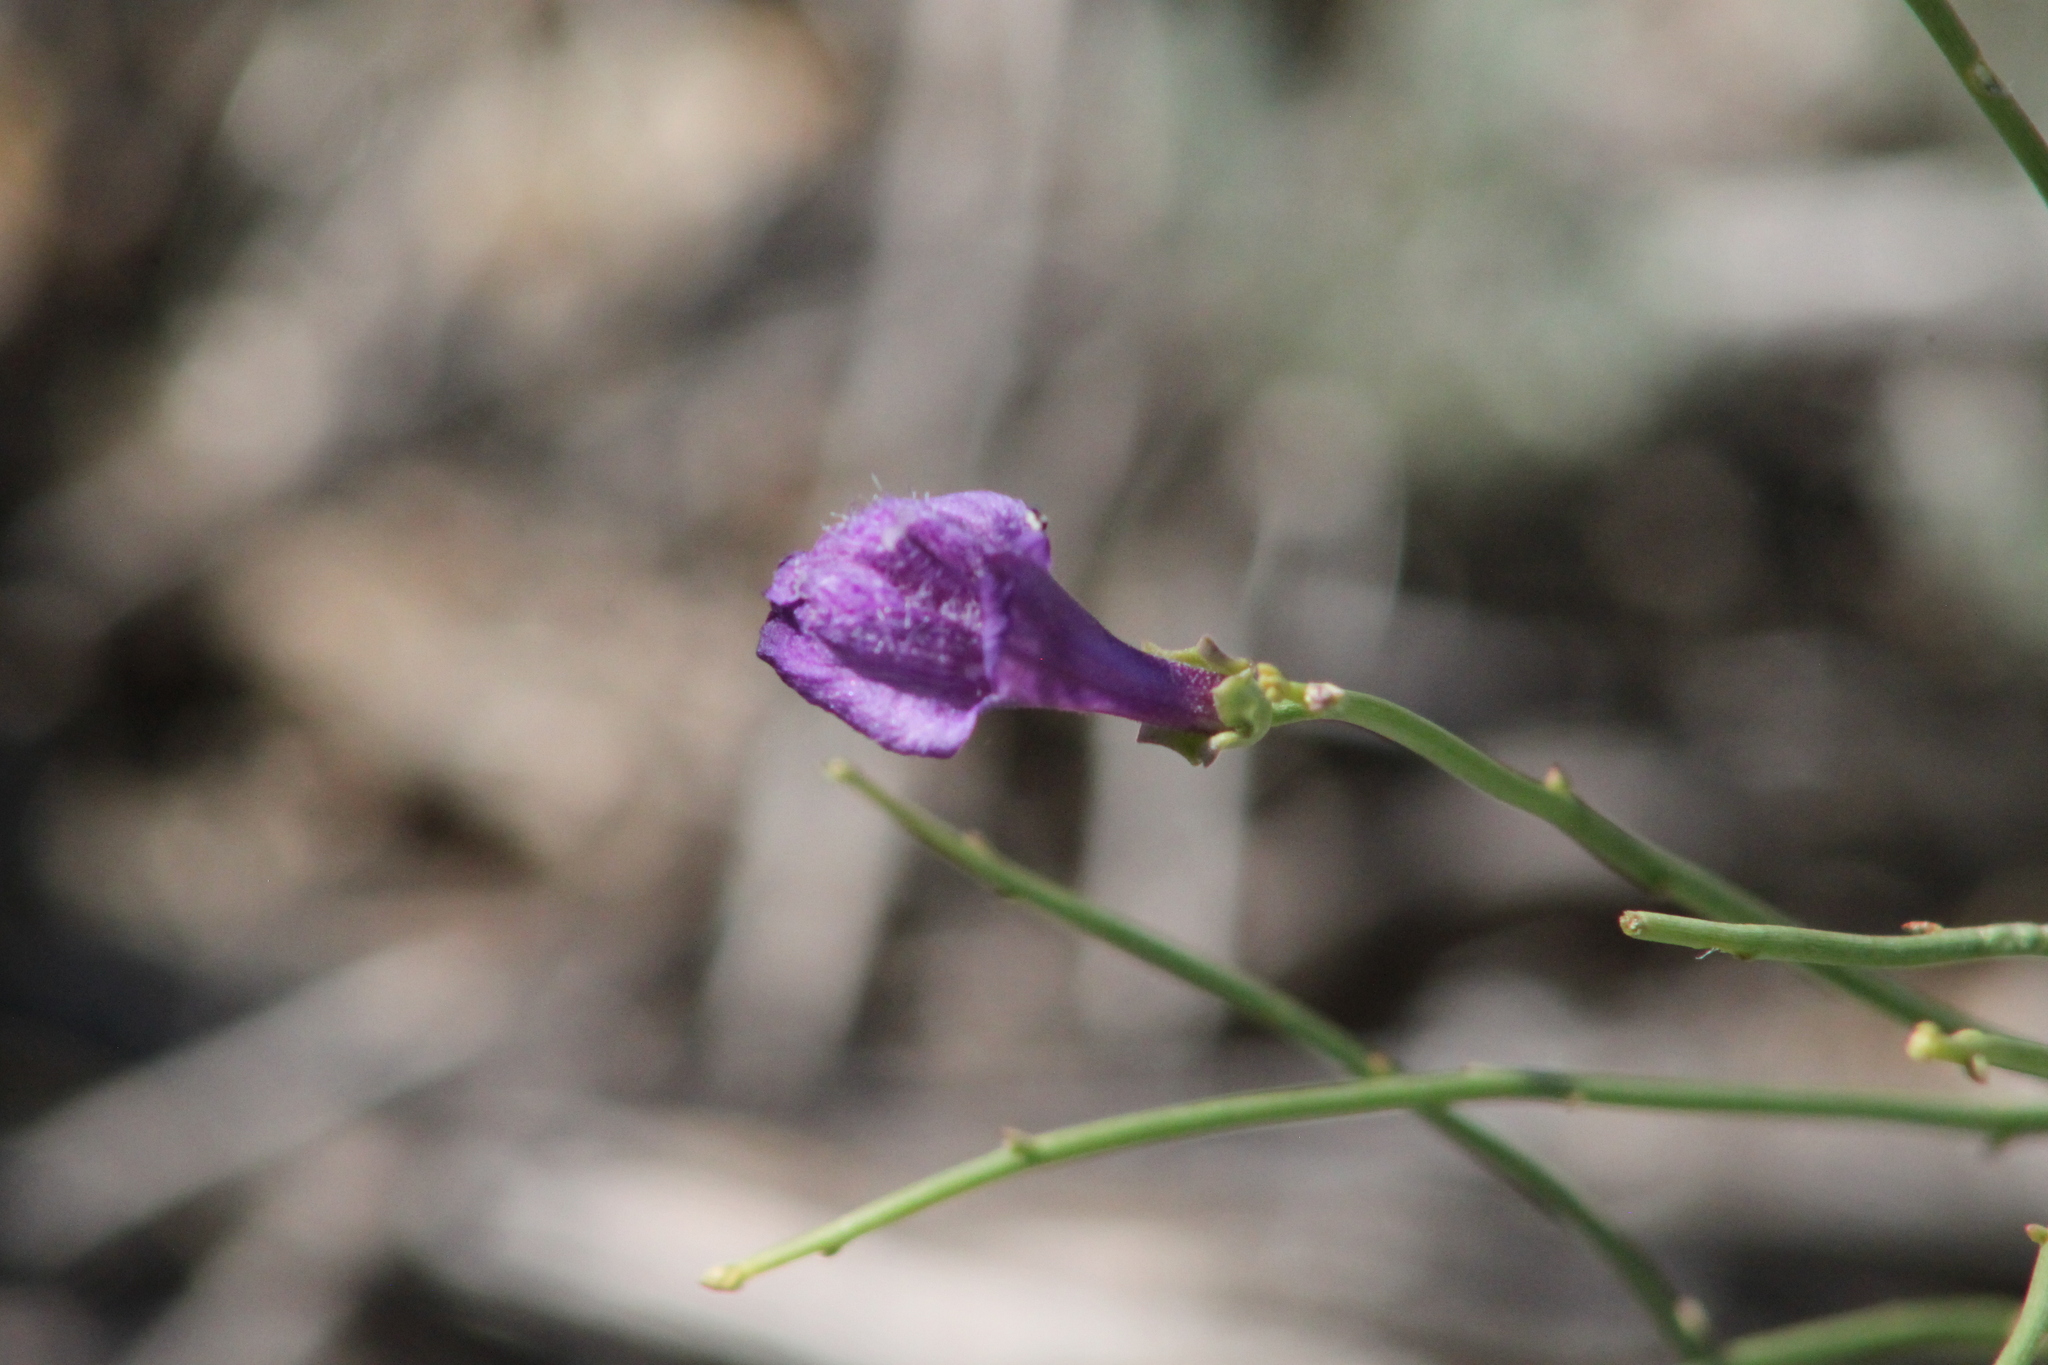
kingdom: Plantae
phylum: Tracheophyta
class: Magnoliopsida
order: Lamiales
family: Mazaceae
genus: Dodartia
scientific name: Dodartia orientalis
